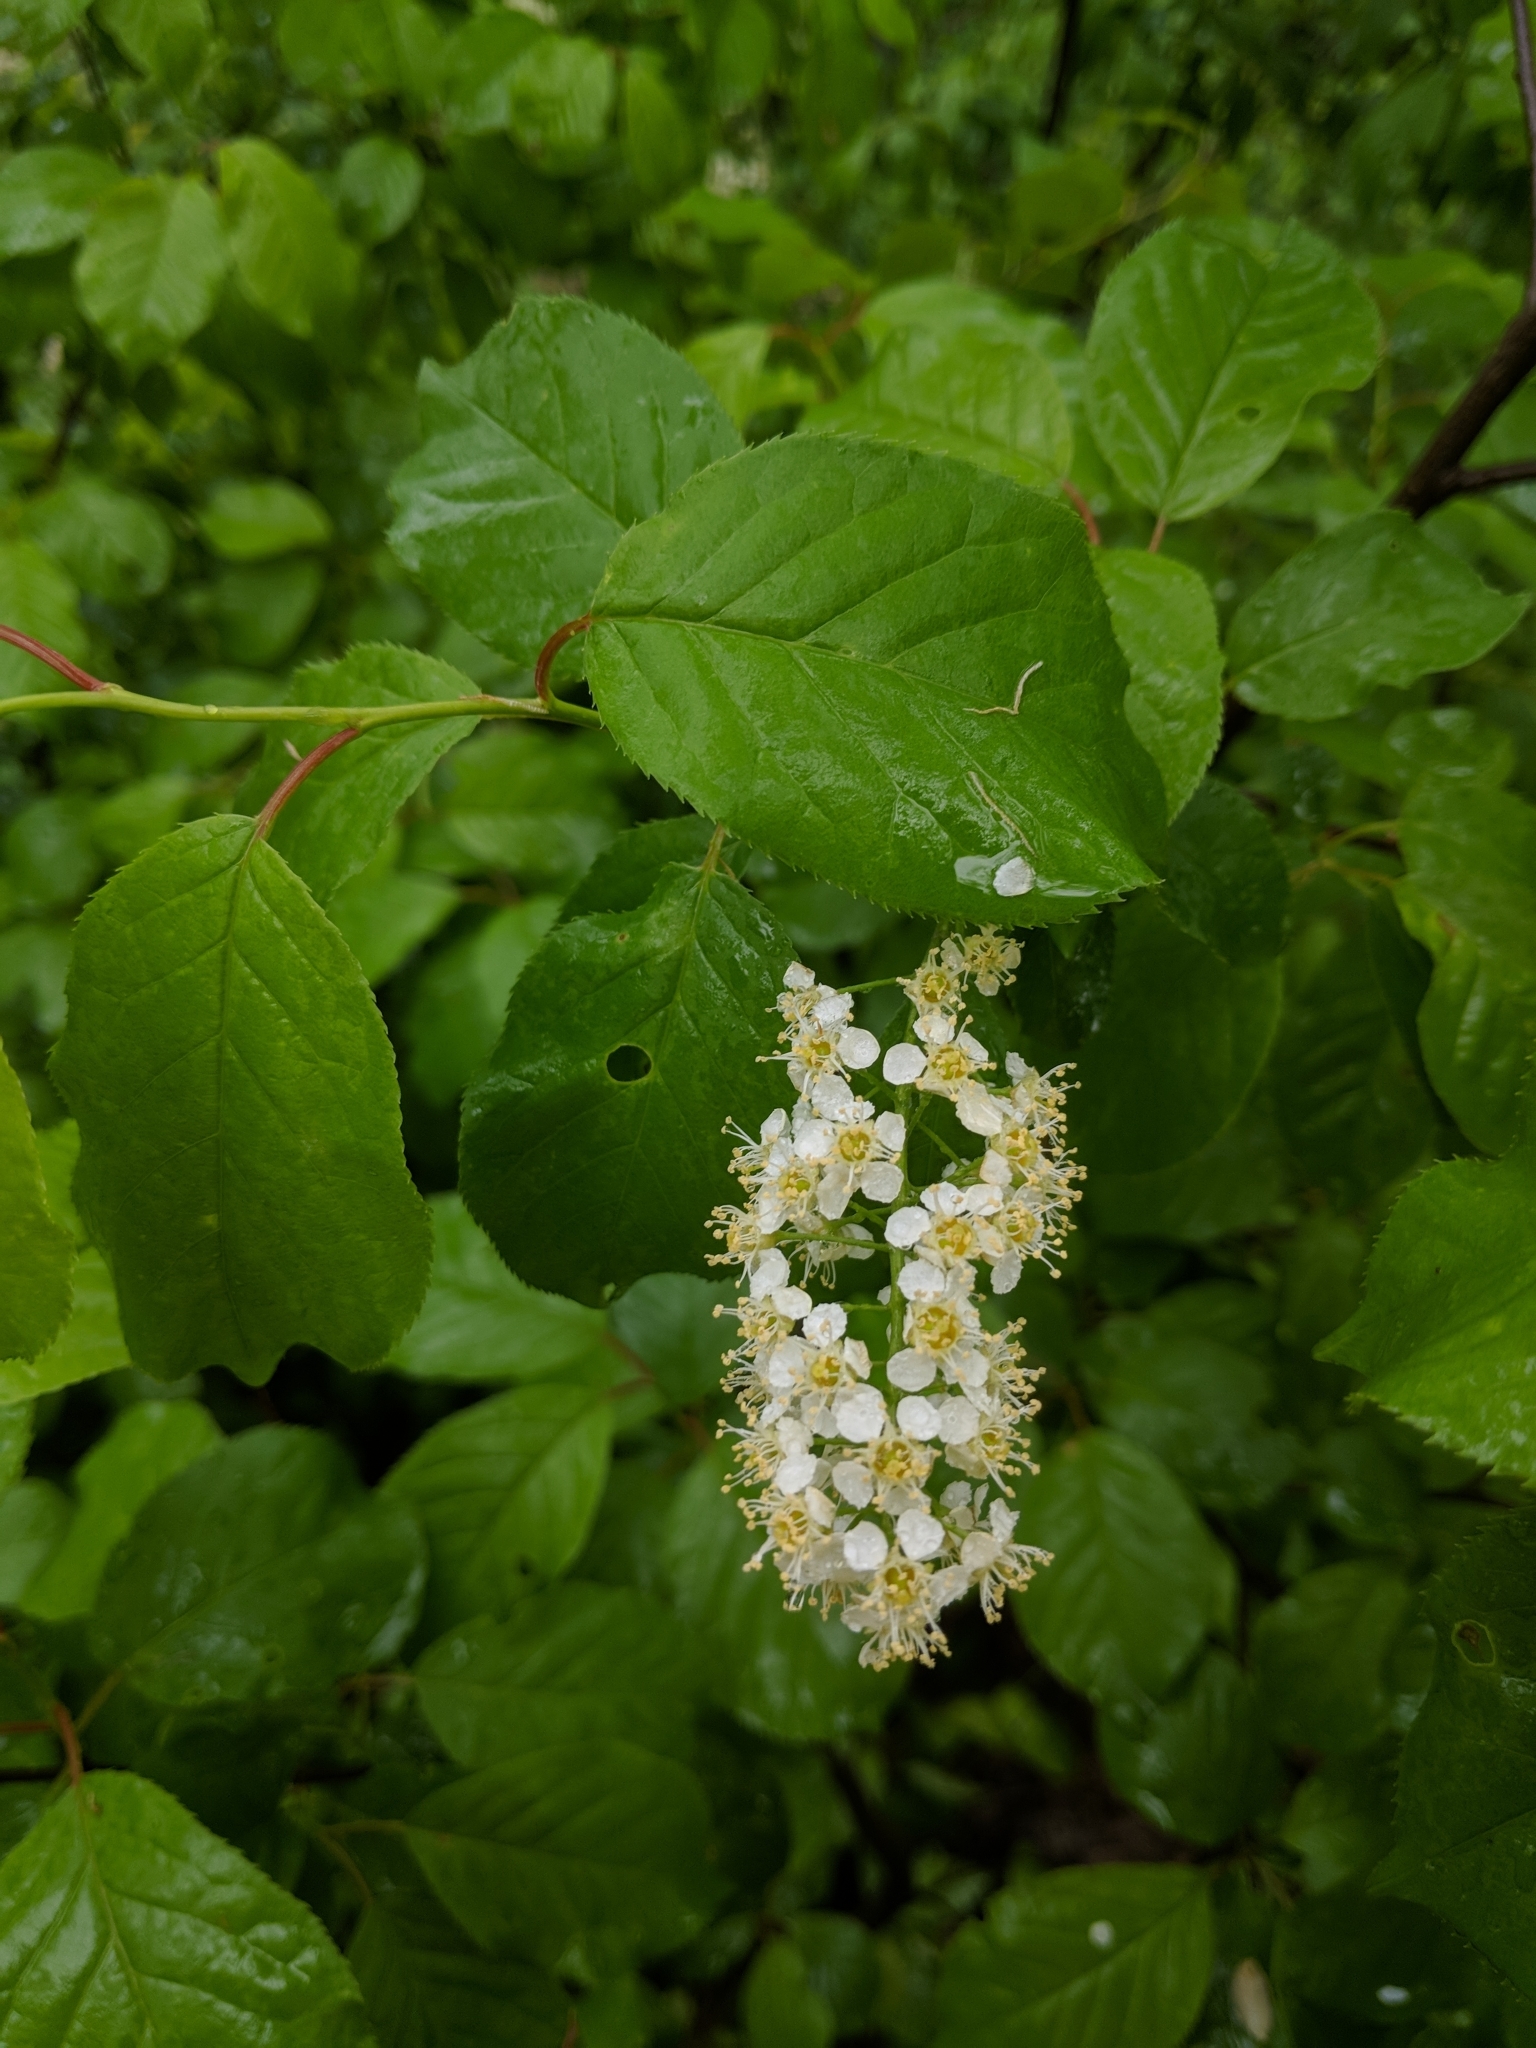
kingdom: Plantae
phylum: Tracheophyta
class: Magnoliopsida
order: Rosales
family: Rosaceae
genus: Prunus
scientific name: Prunus virginiana
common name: Chokecherry
